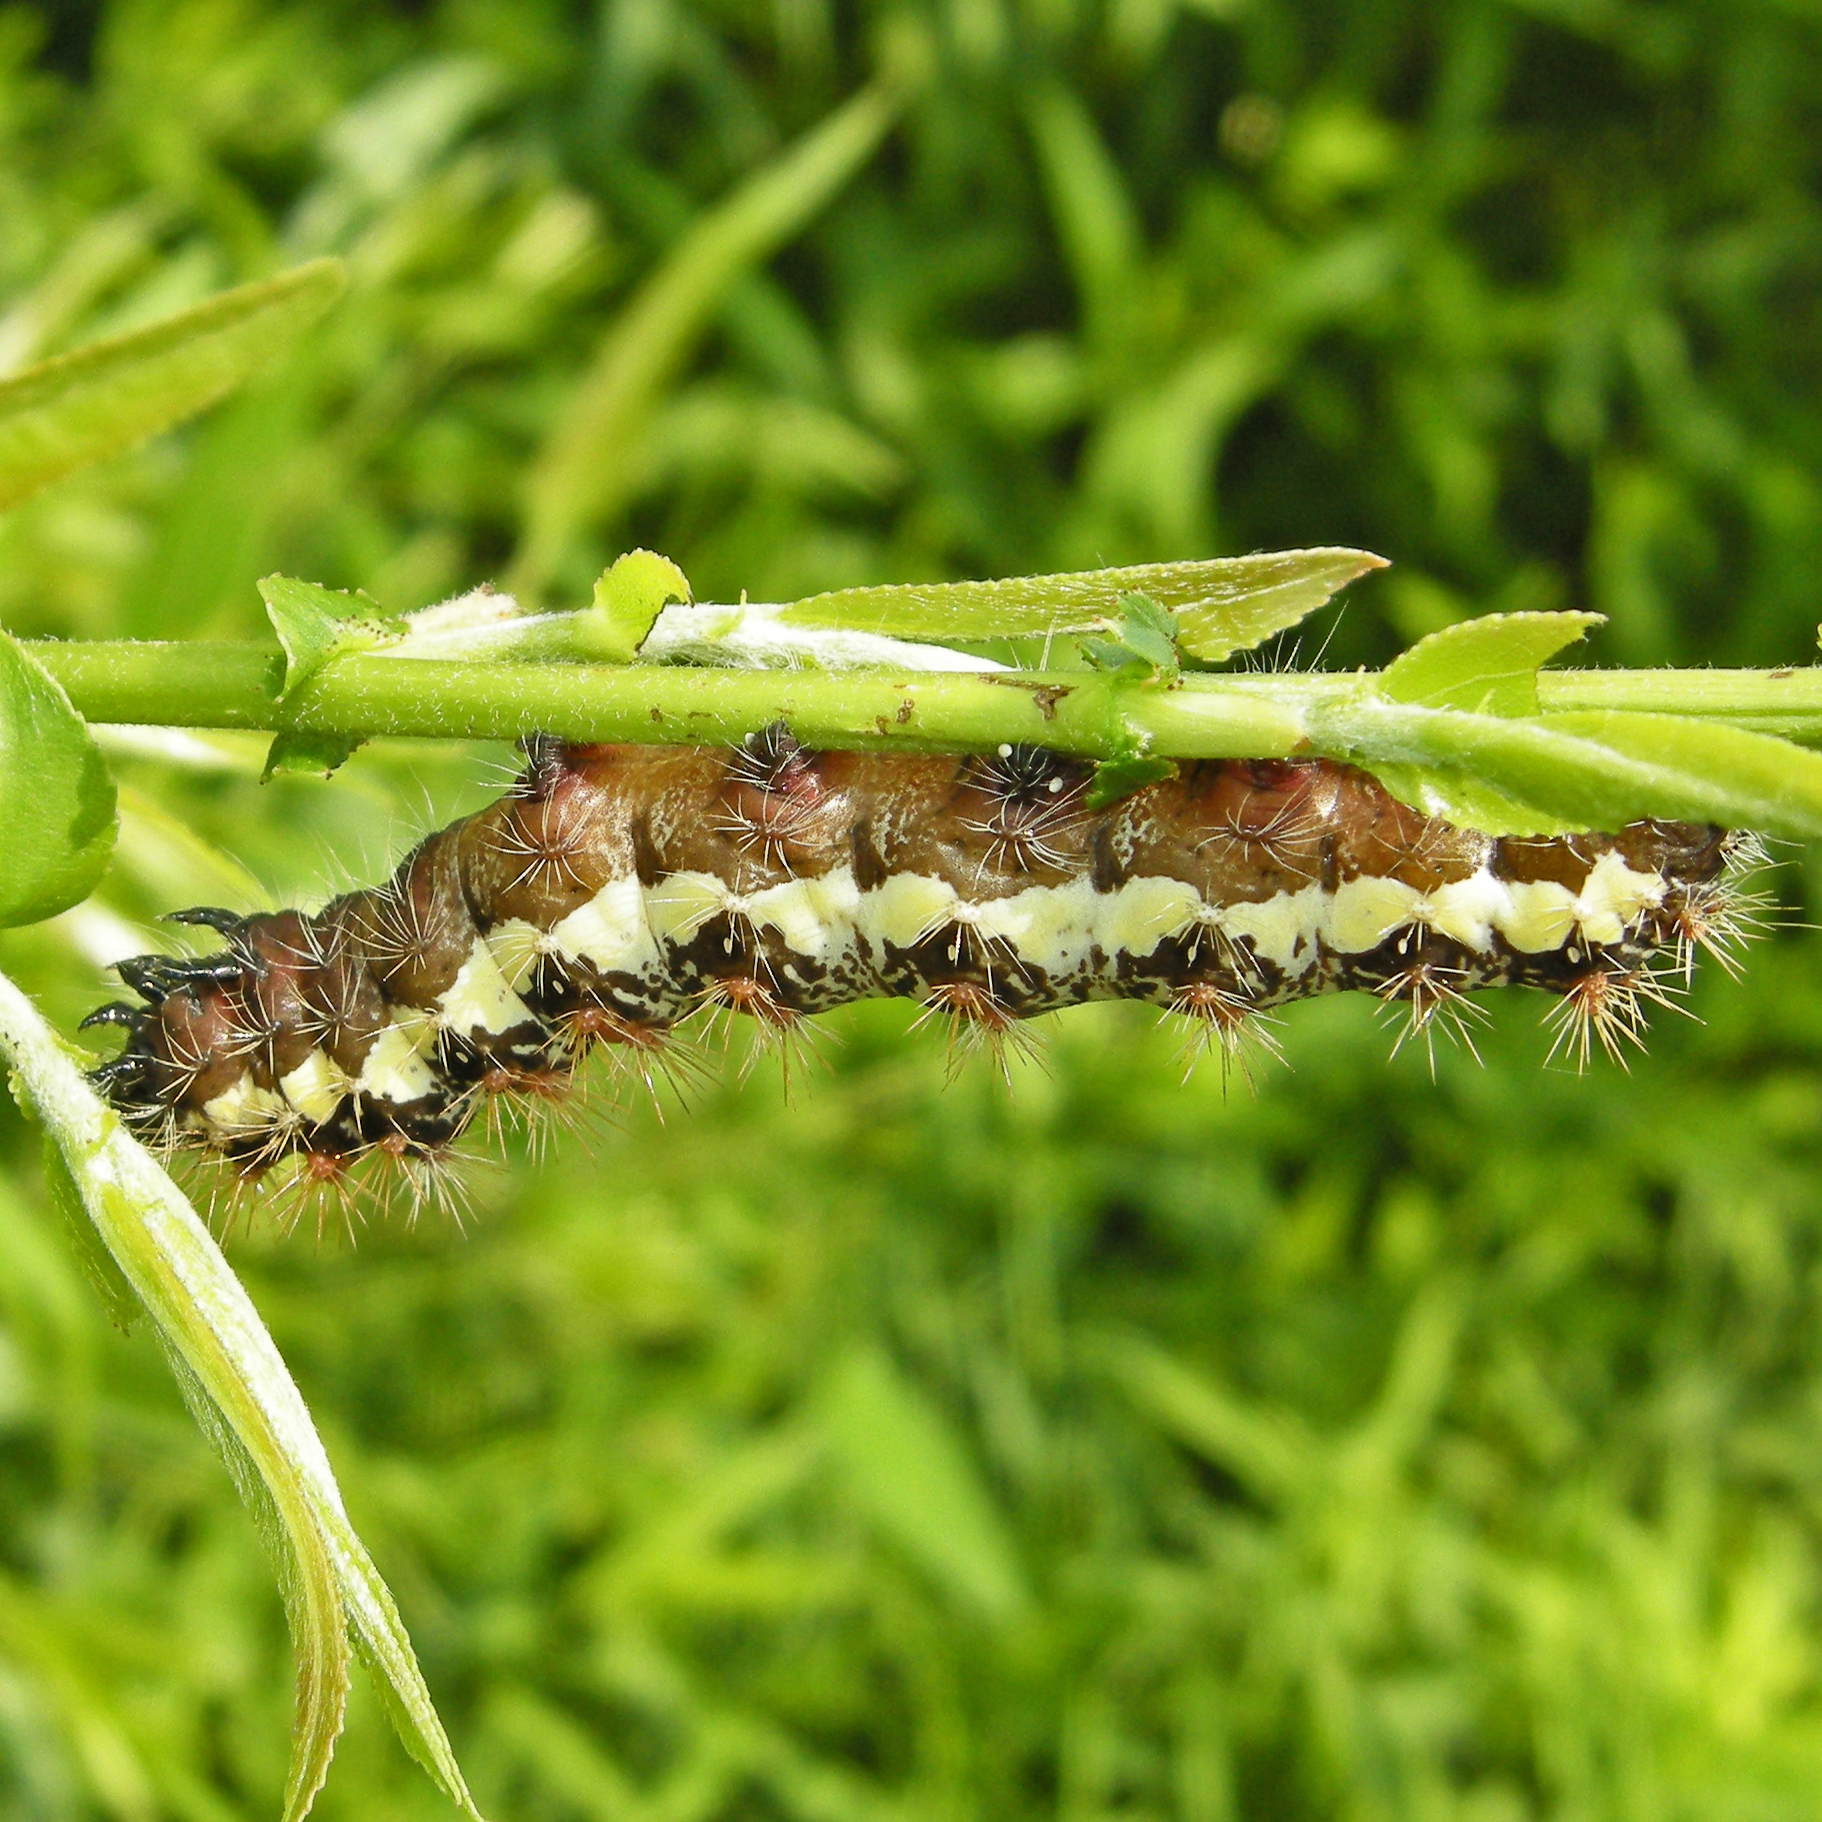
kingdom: Animalia
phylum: Arthropoda
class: Insecta
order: Lepidoptera
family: Noctuidae
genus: Acronicta
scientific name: Acronicta oblinita
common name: Smeared dagger
